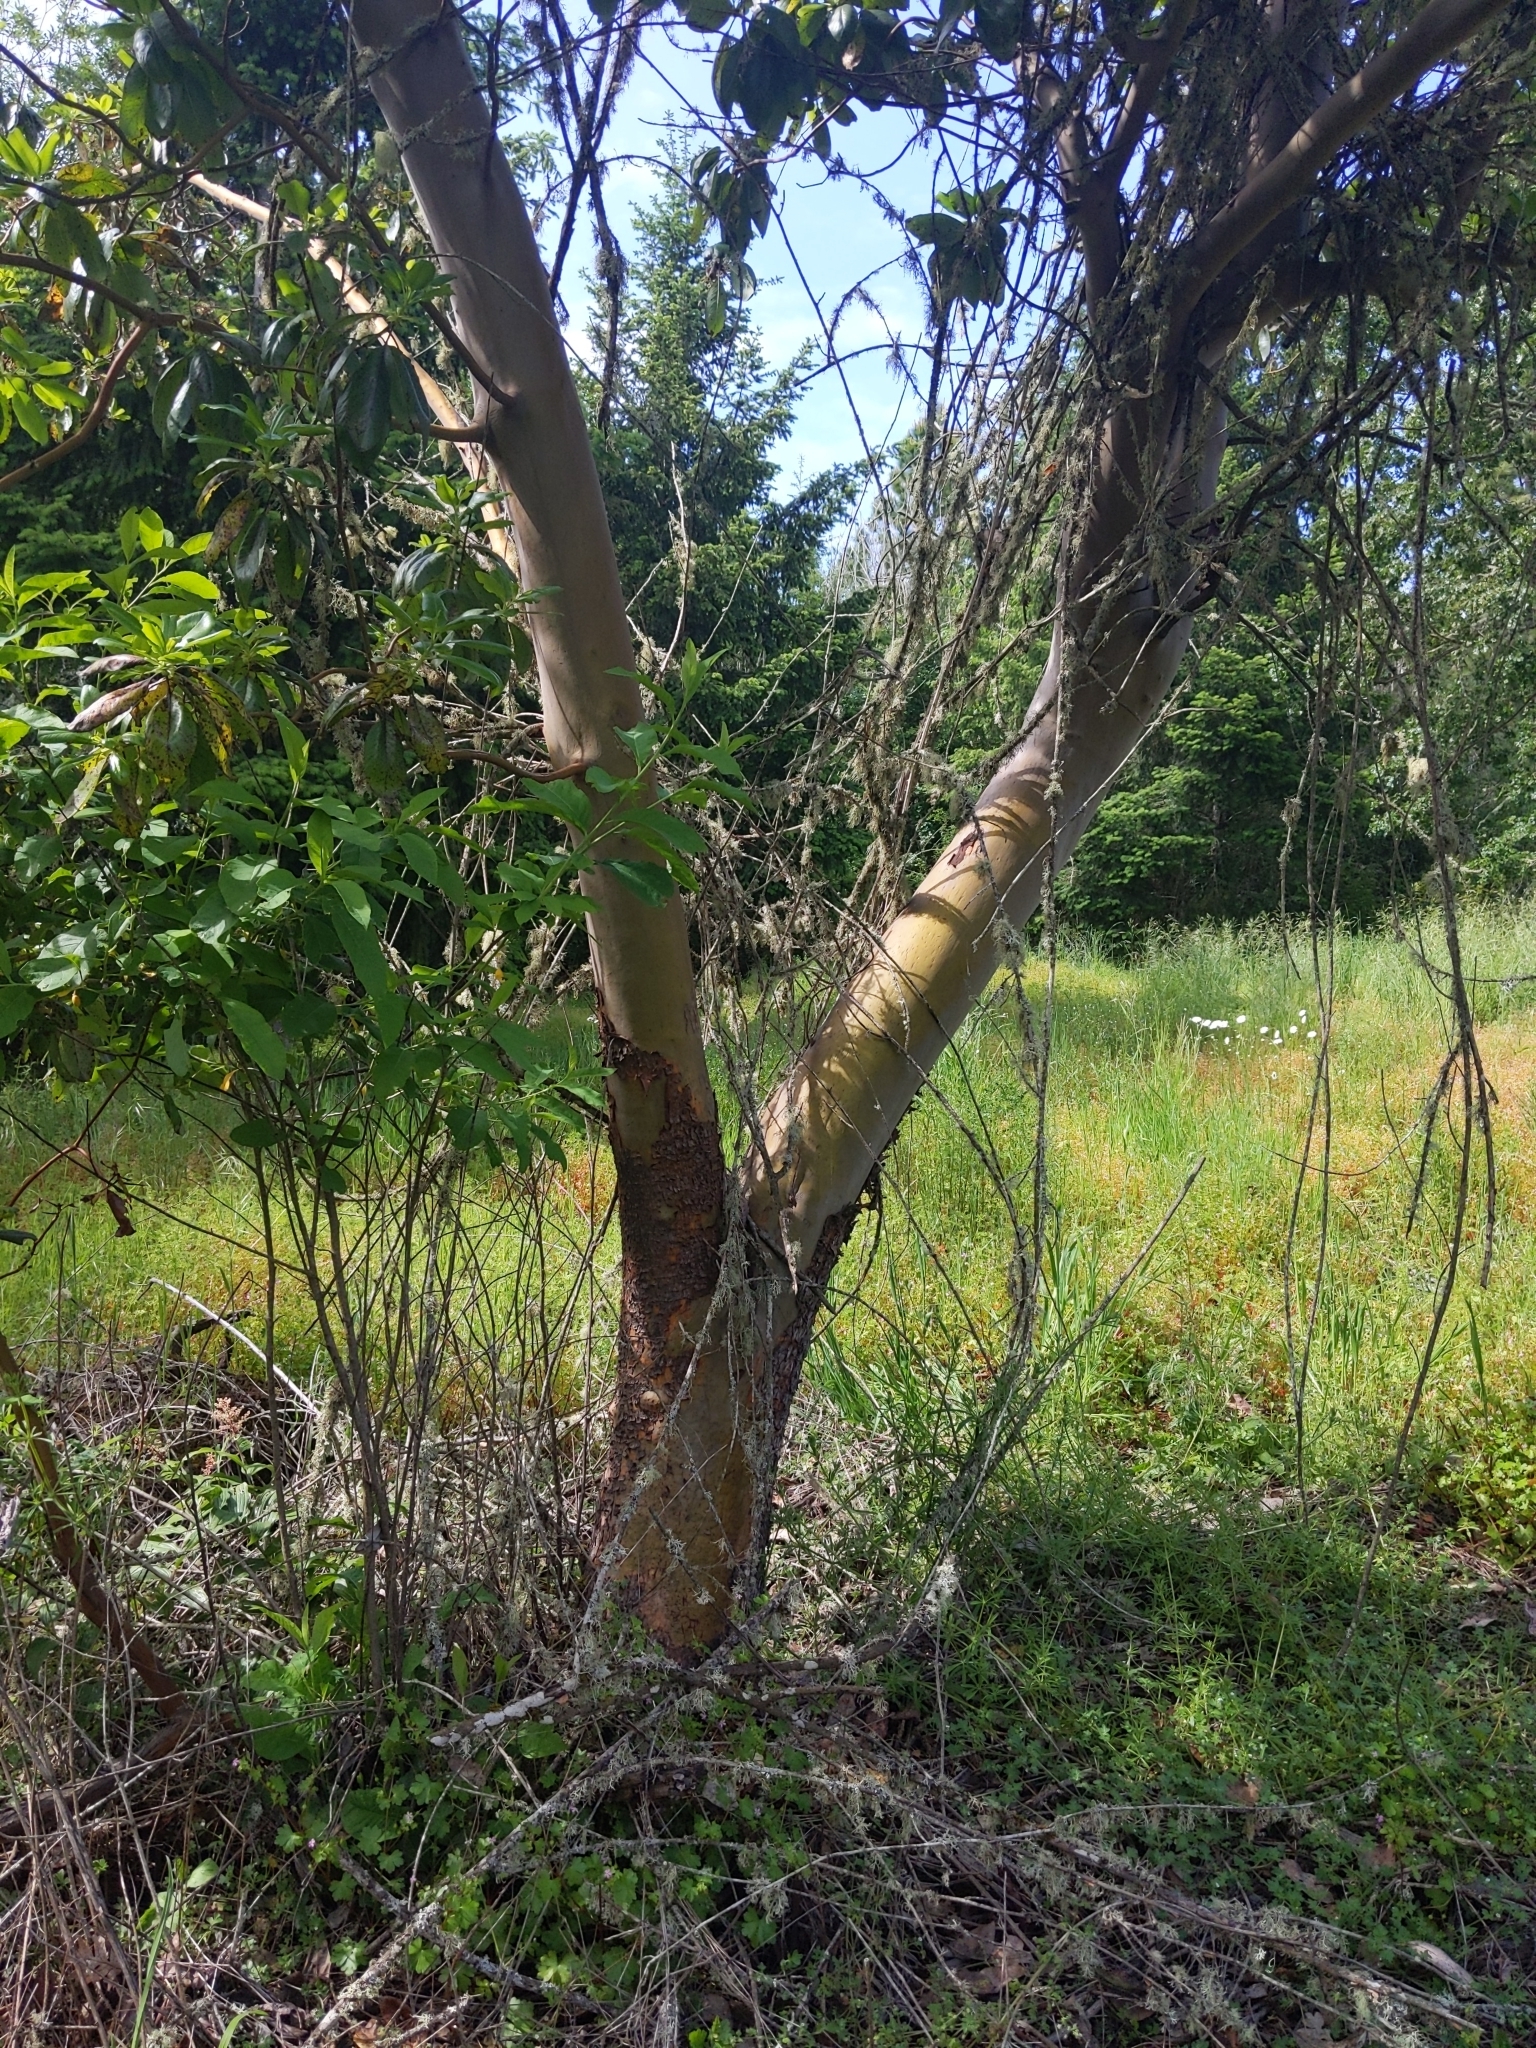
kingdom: Plantae
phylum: Tracheophyta
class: Magnoliopsida
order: Ericales
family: Ericaceae
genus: Arbutus
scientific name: Arbutus menziesii
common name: Pacific madrone
